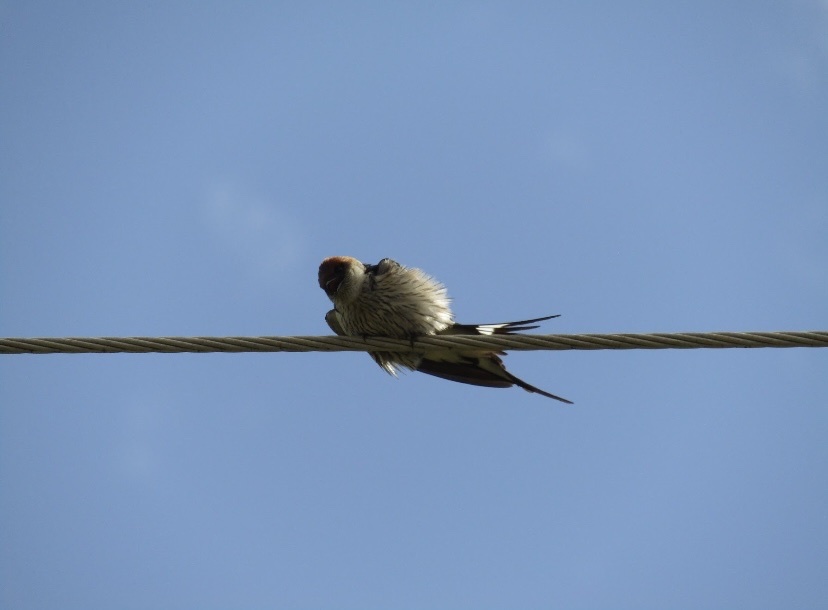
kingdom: Animalia
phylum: Chordata
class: Aves
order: Passeriformes
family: Hirundinidae
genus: Cecropis
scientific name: Cecropis cucullata
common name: Greater striped-swallow
